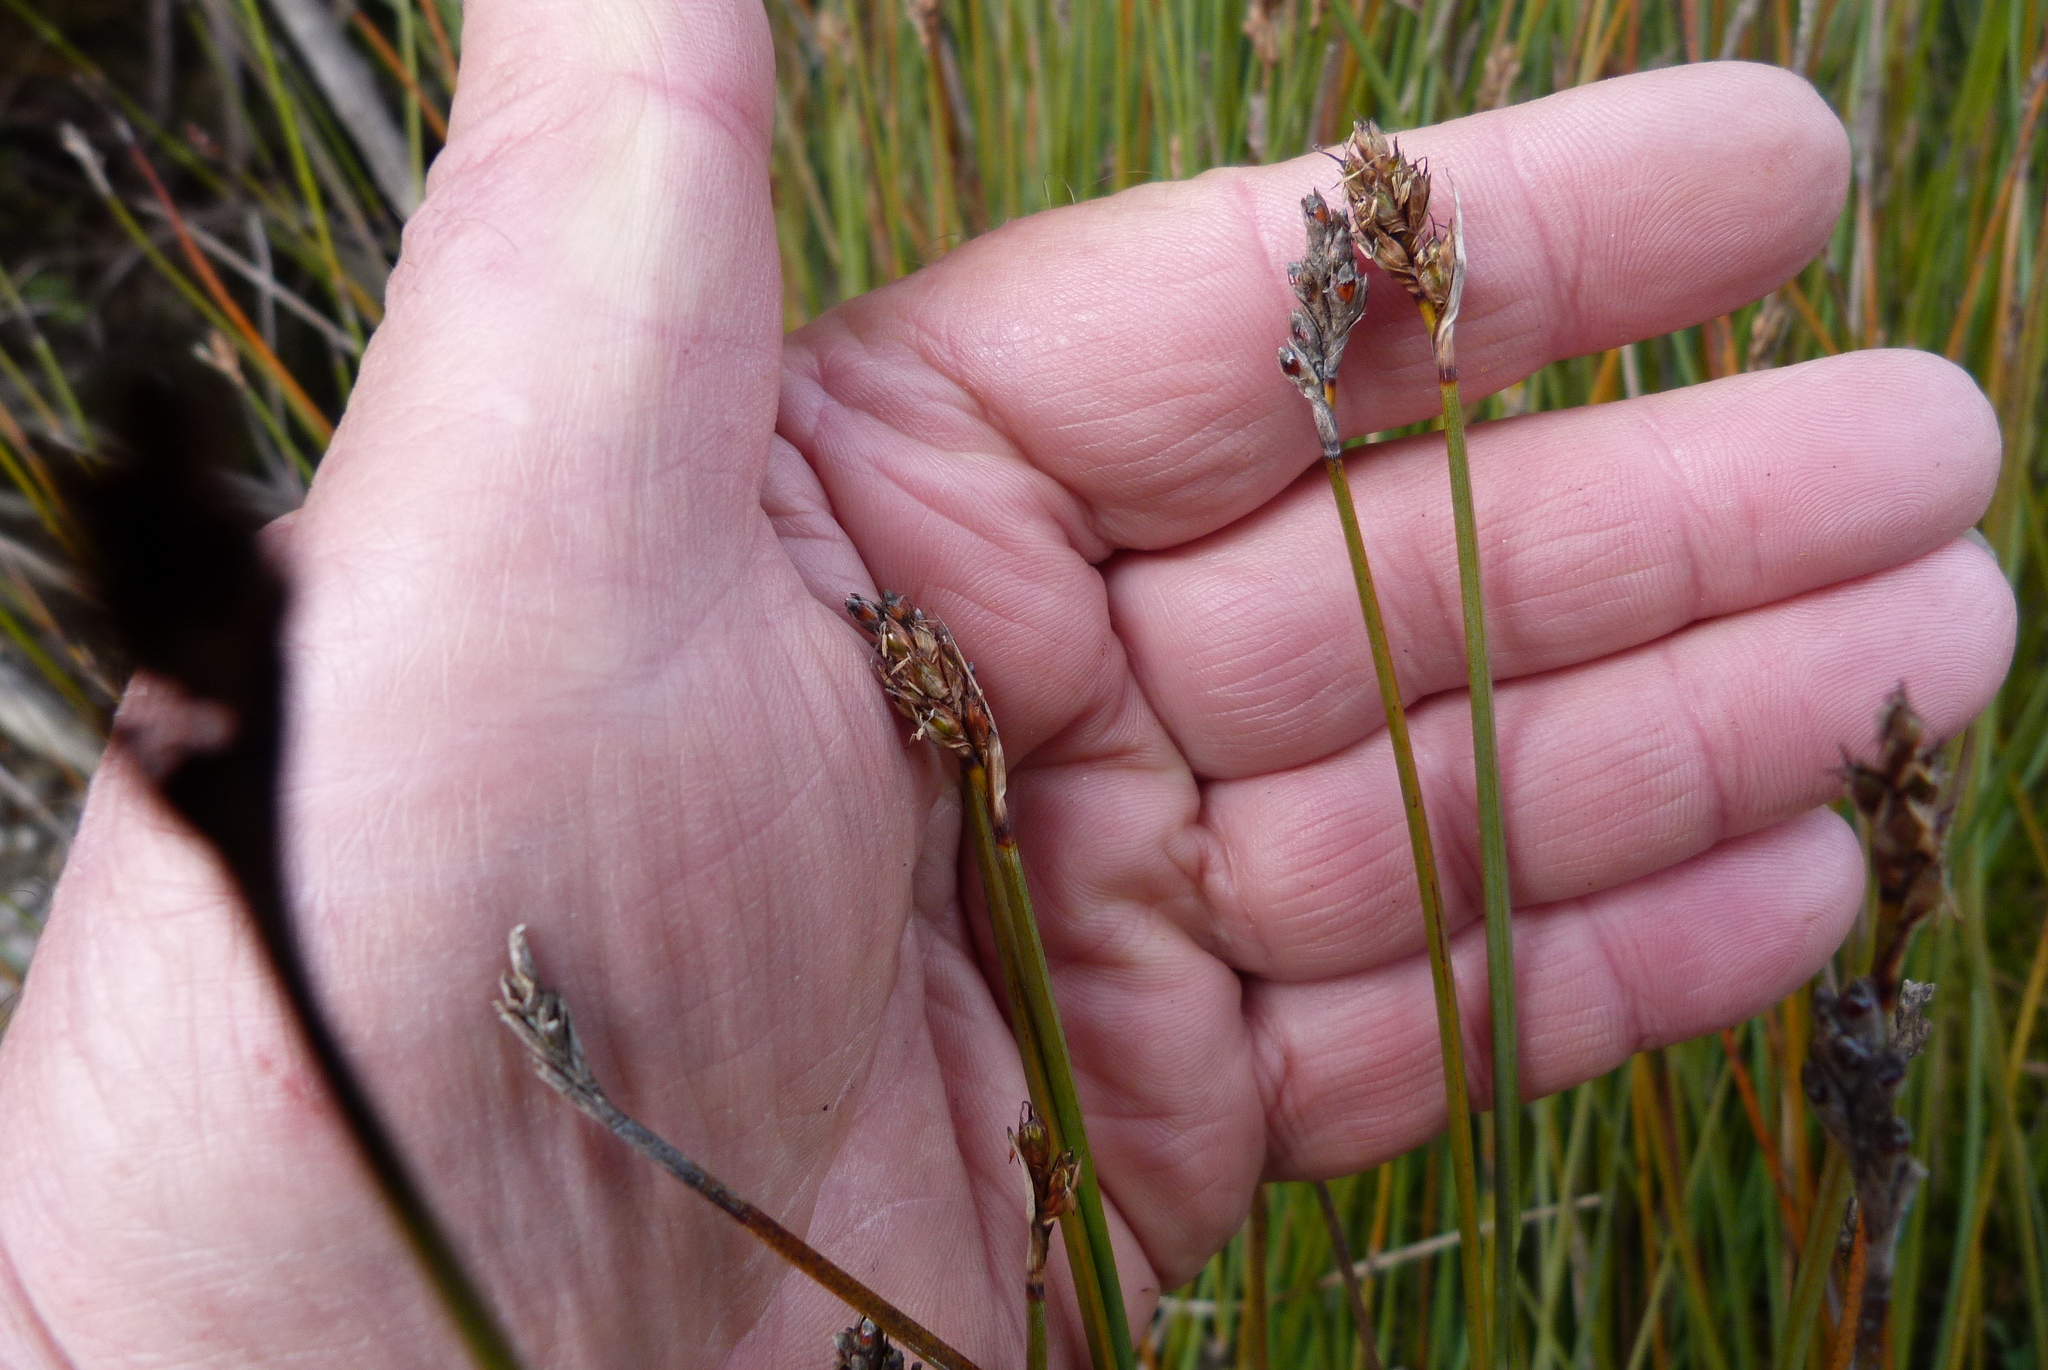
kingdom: Plantae
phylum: Tracheophyta
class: Liliopsida
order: Poales
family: Cyperaceae
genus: Lepidosperma
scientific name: Lepidosperma australe
